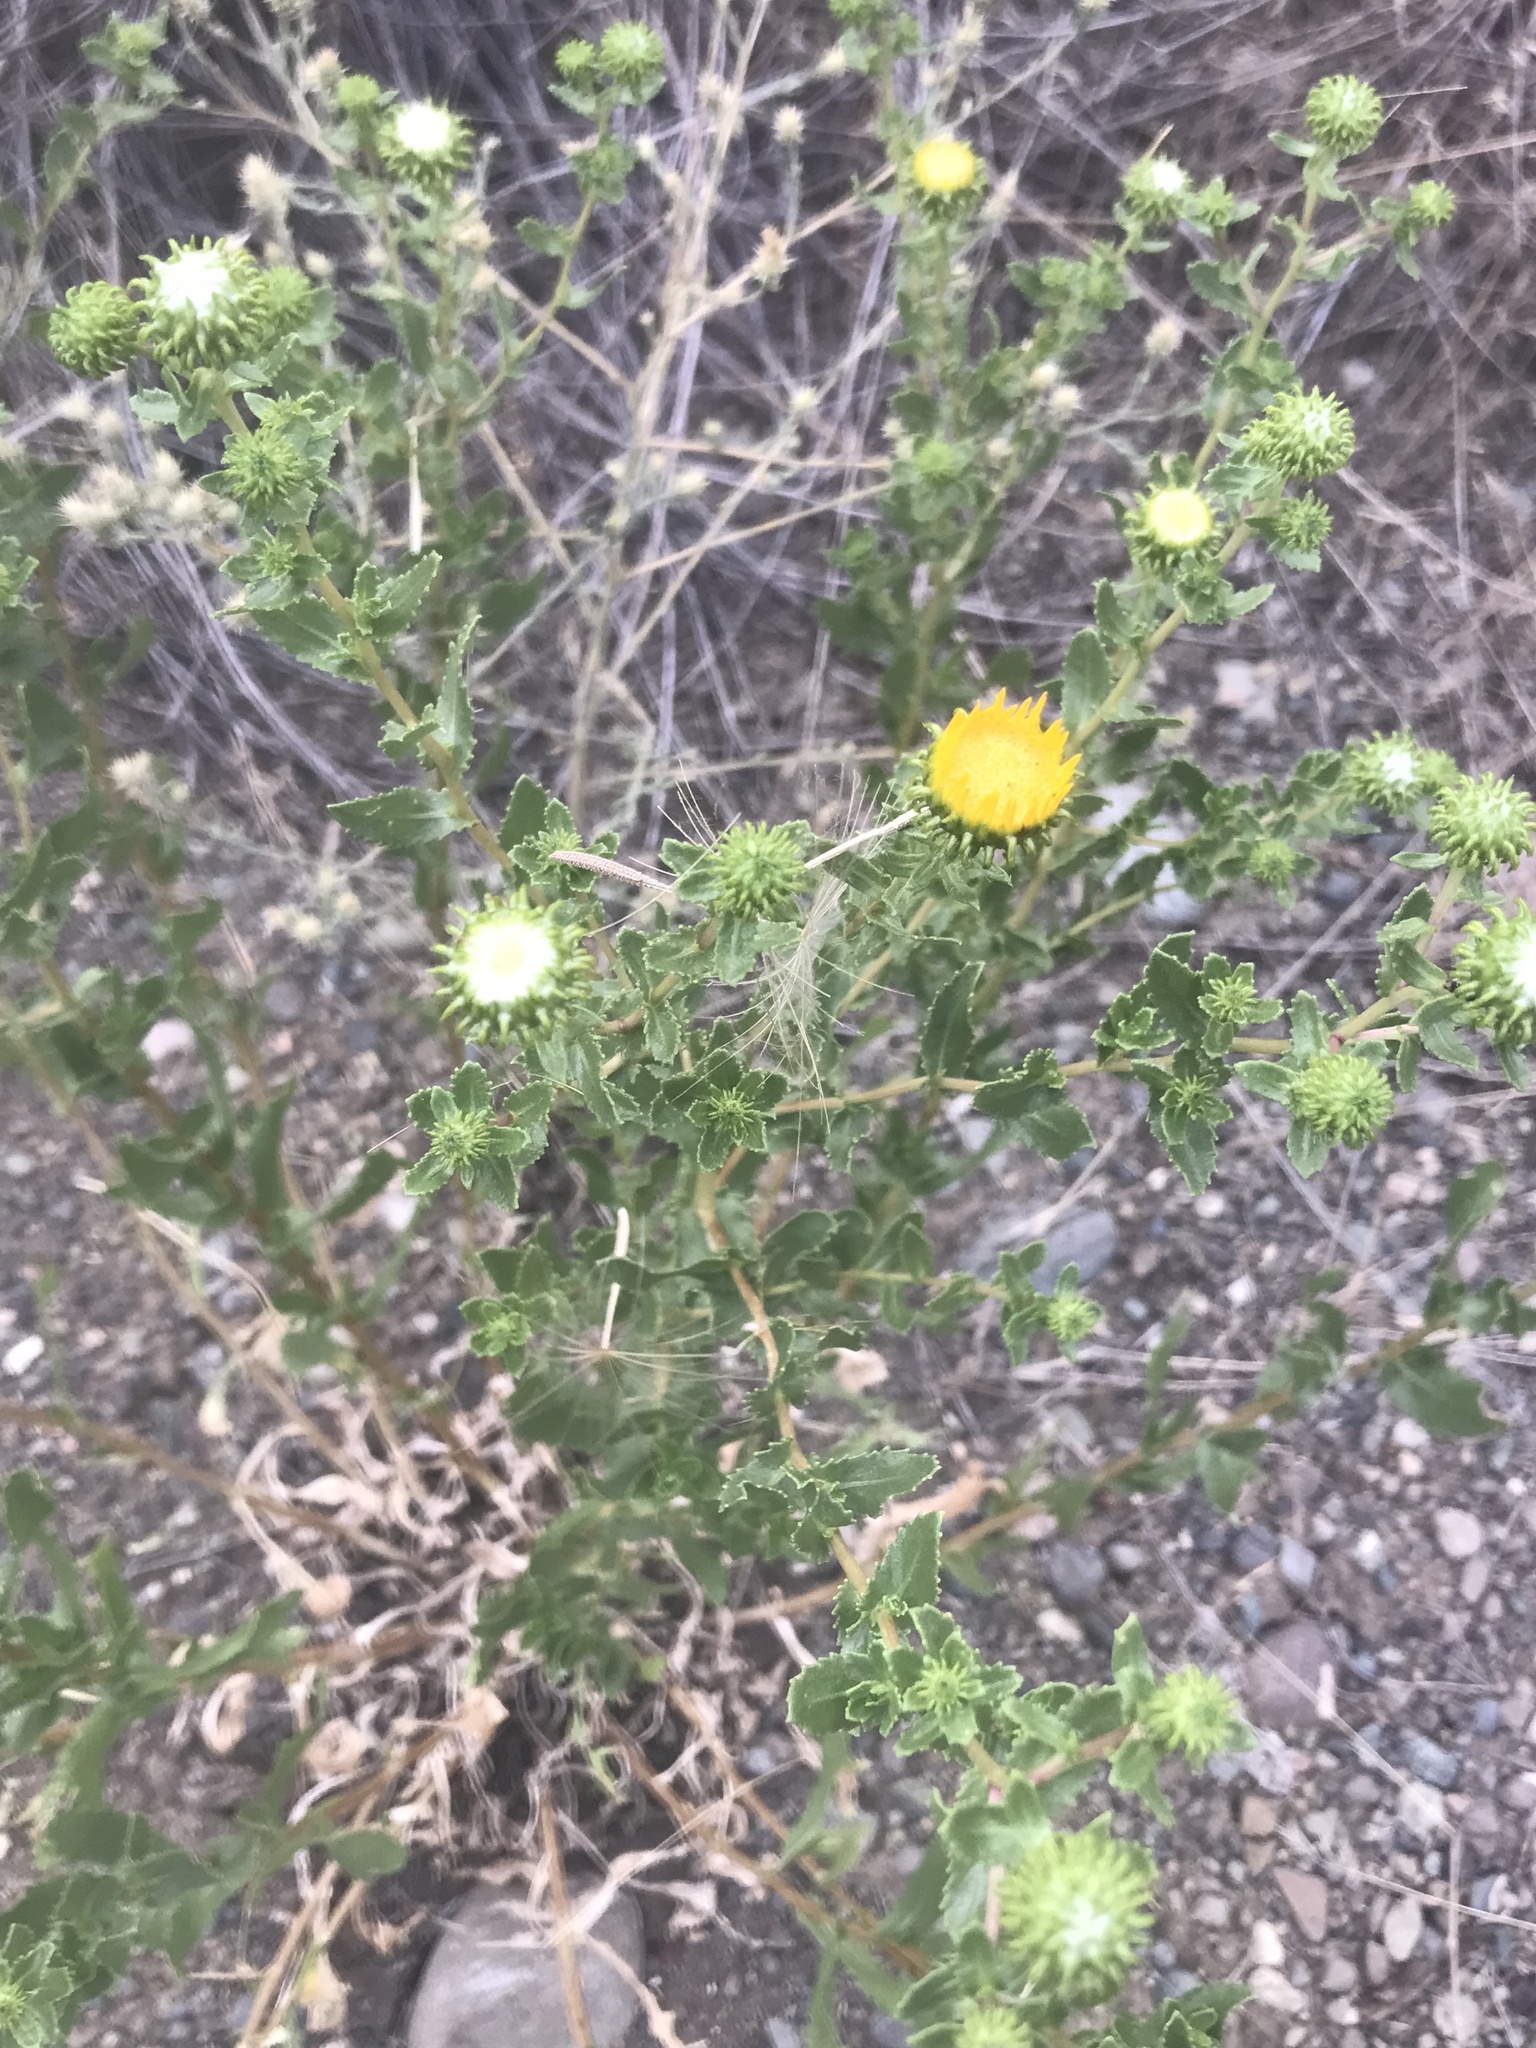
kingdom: Plantae
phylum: Tracheophyta
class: Magnoliopsida
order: Asterales
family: Asteraceae
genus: Grindelia
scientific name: Grindelia squarrosa
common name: Curly-cup gumweed
